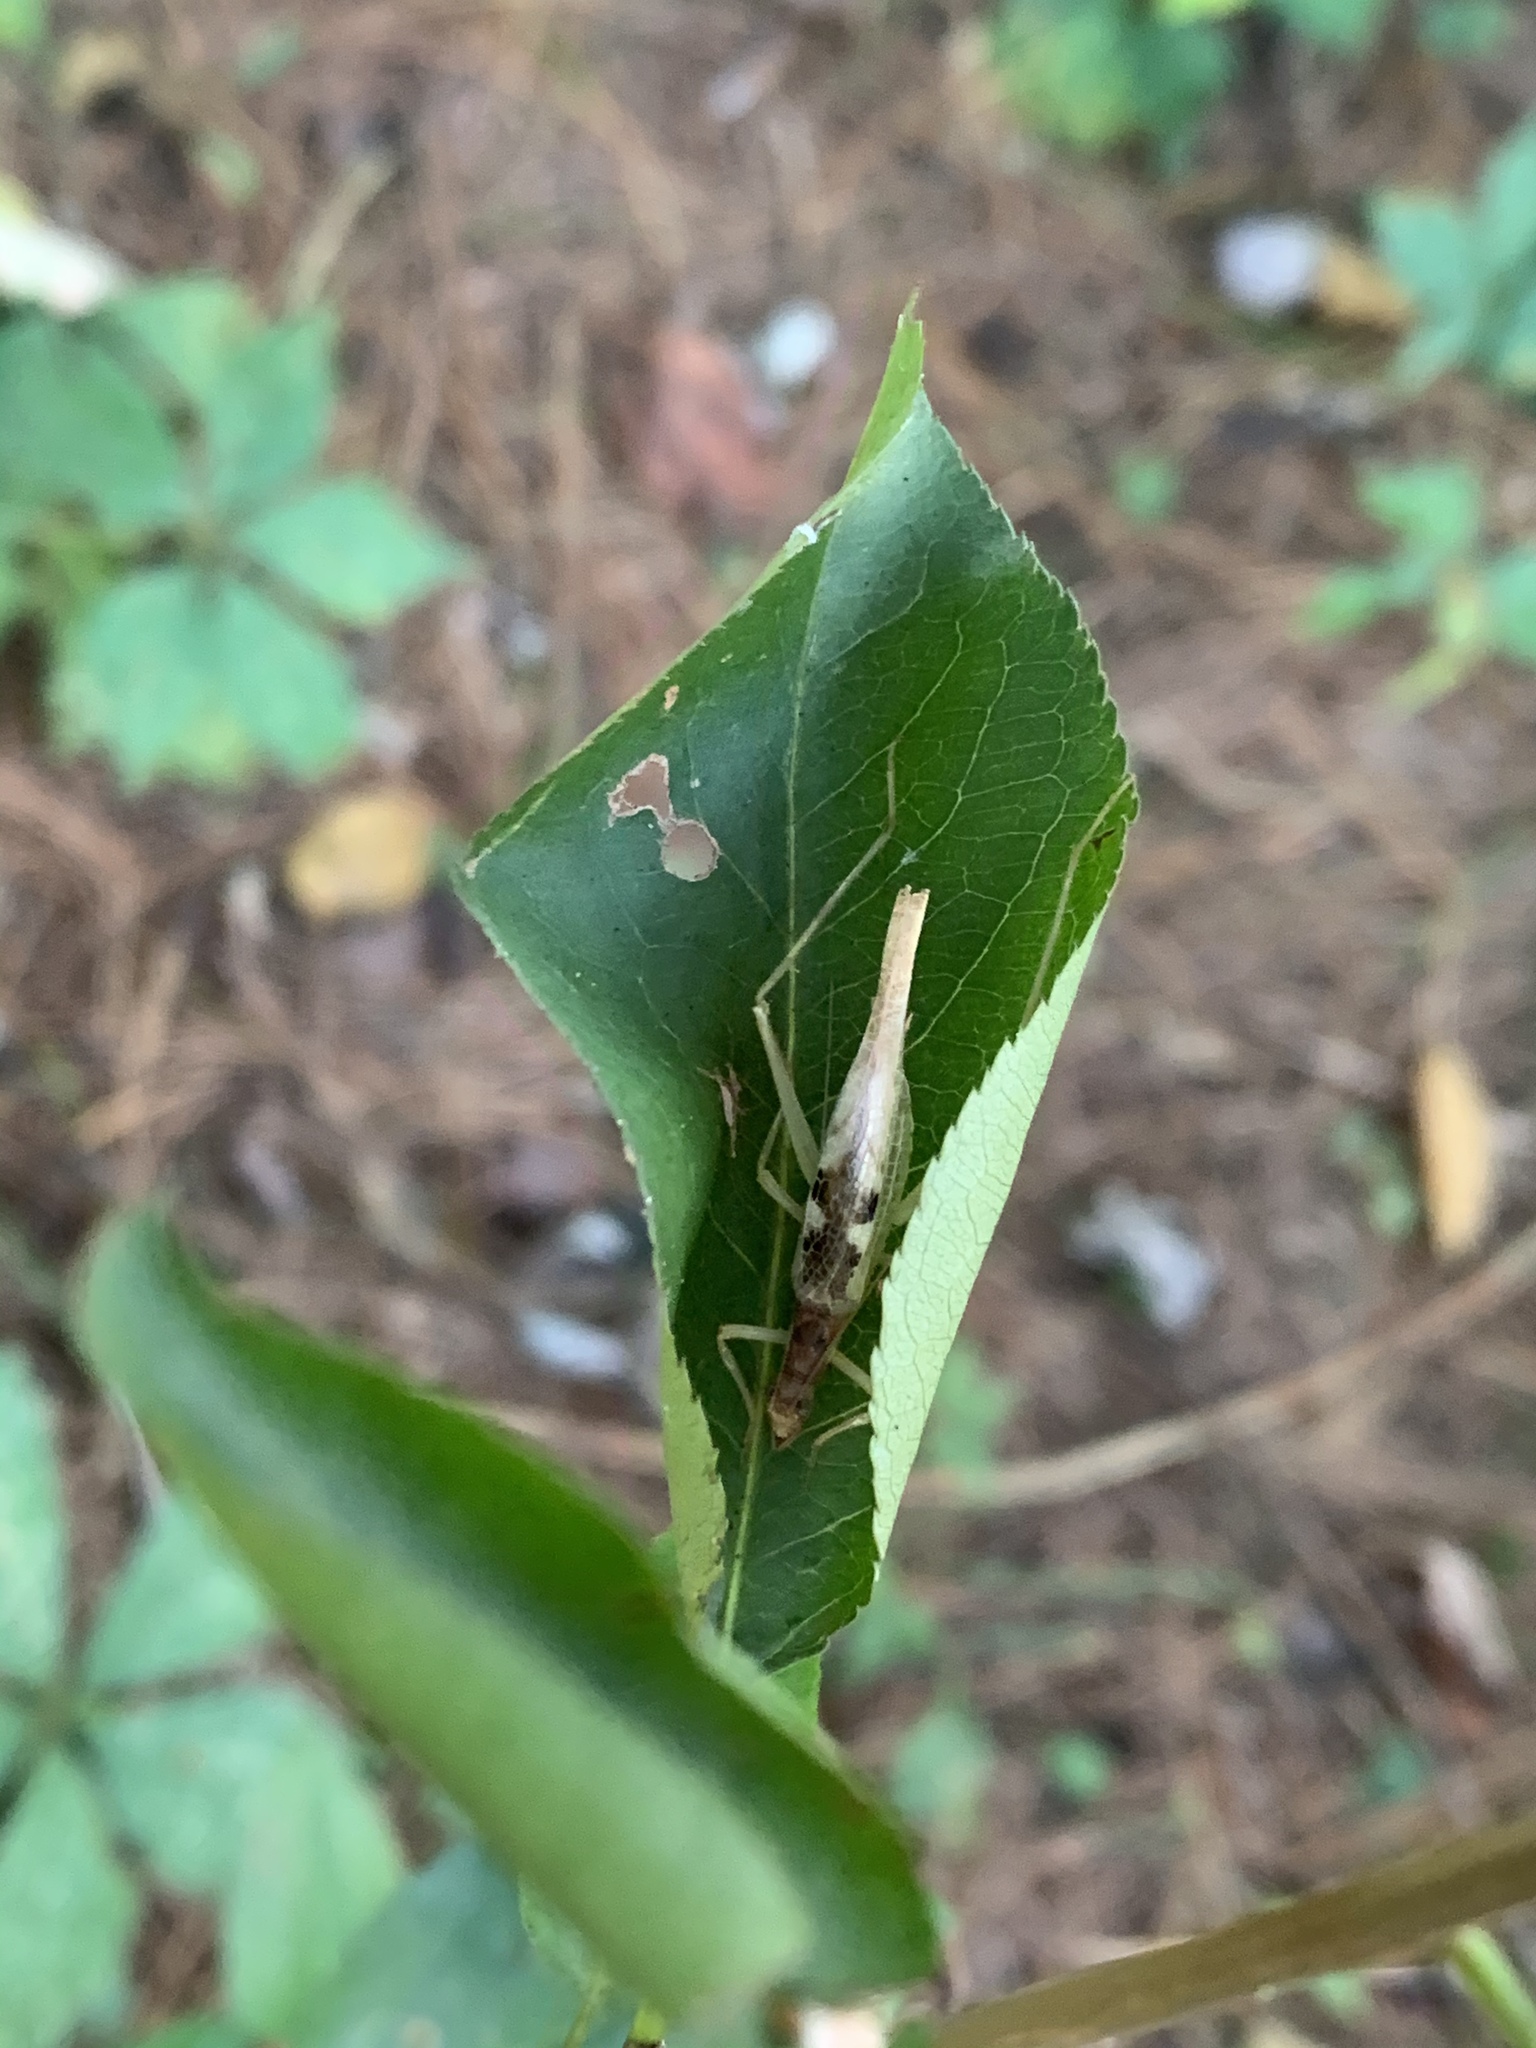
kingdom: Animalia
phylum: Arthropoda
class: Insecta
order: Orthoptera
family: Gryllidae
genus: Neoxabea
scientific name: Neoxabea bipunctata
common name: Two-spotted tree cricket
